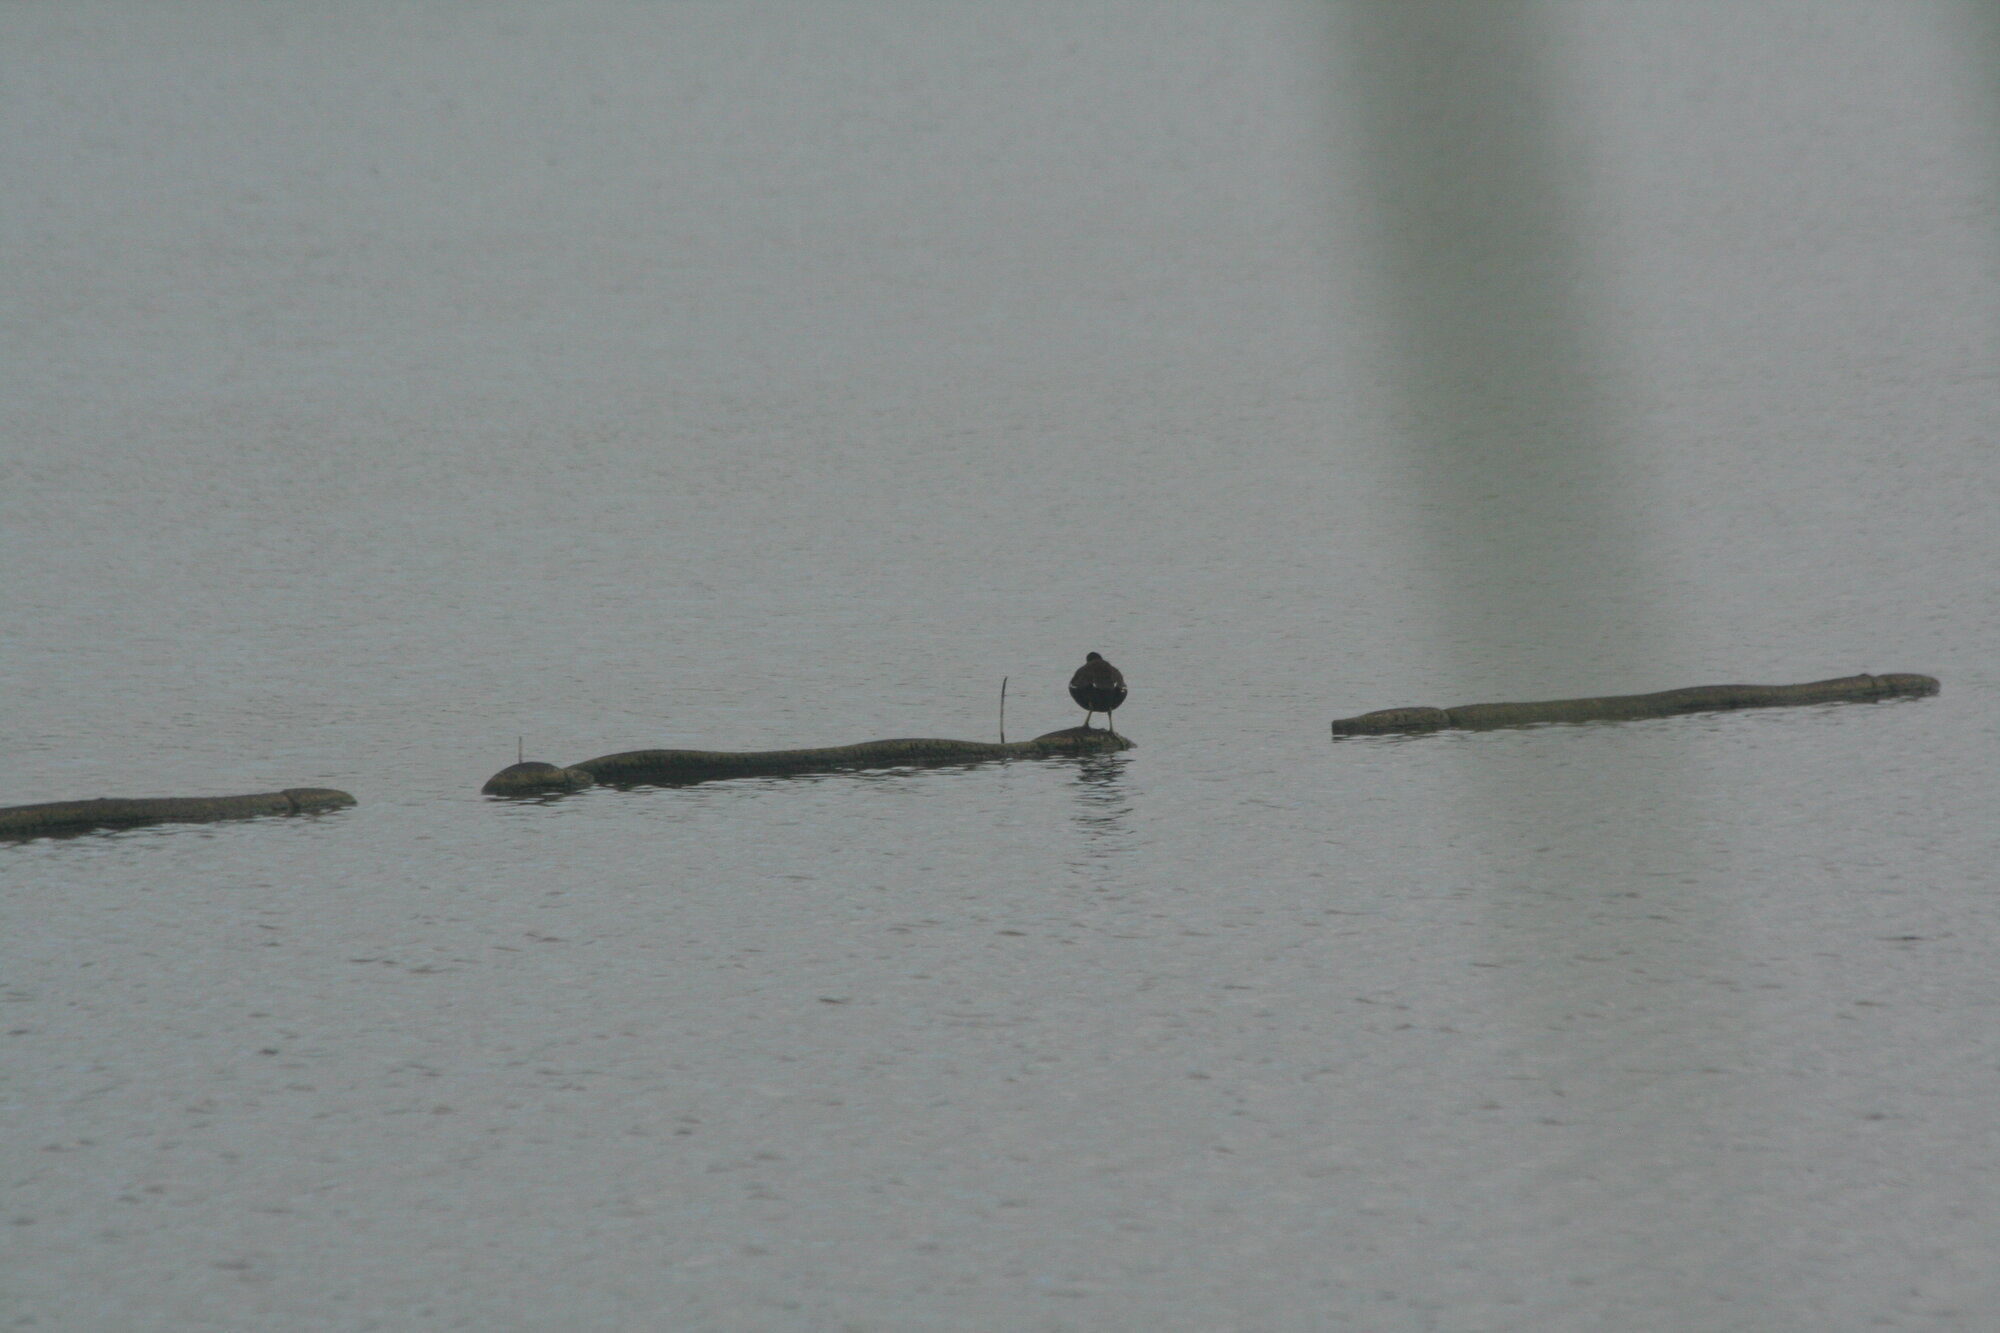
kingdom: Animalia
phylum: Chordata
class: Aves
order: Gruiformes
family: Rallidae
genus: Gallinula
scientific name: Gallinula chloropus
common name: Common moorhen
